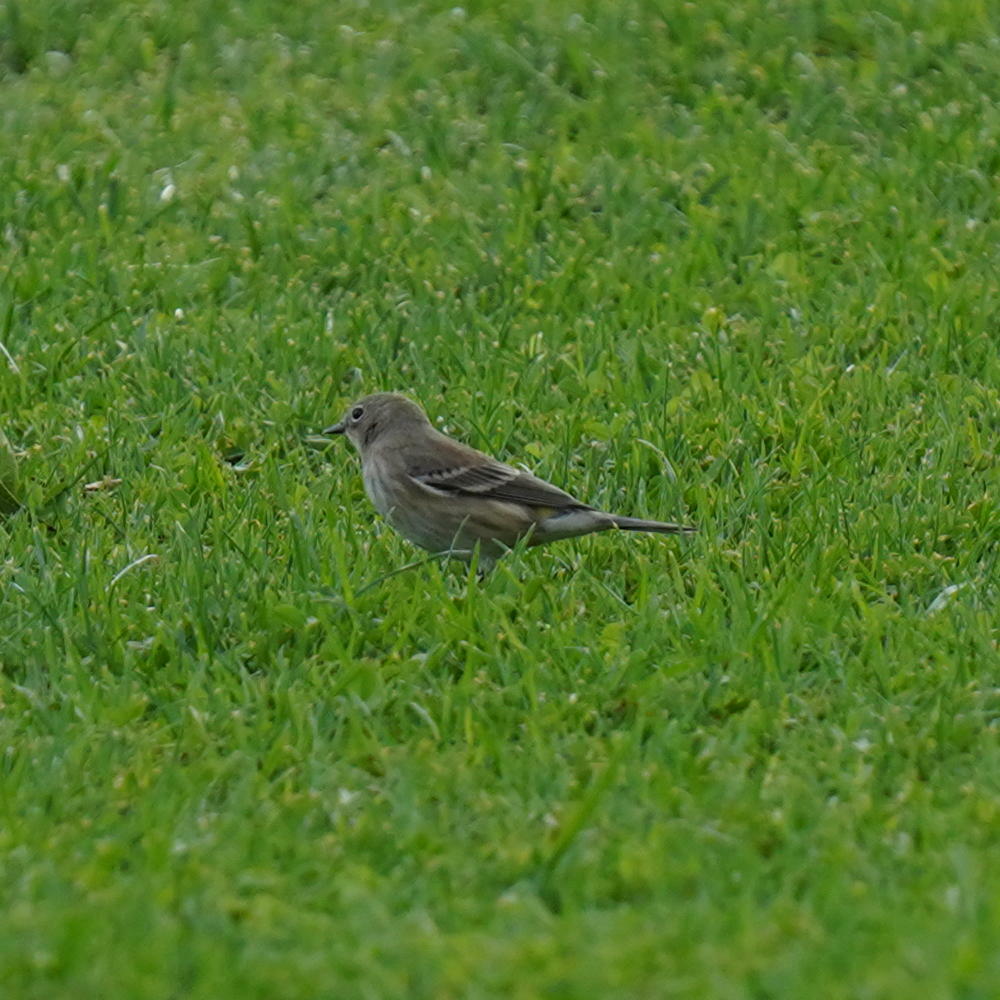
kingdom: Animalia
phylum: Chordata
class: Aves
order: Passeriformes
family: Parulidae
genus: Setophaga
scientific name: Setophaga coronata
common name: Myrtle warbler
